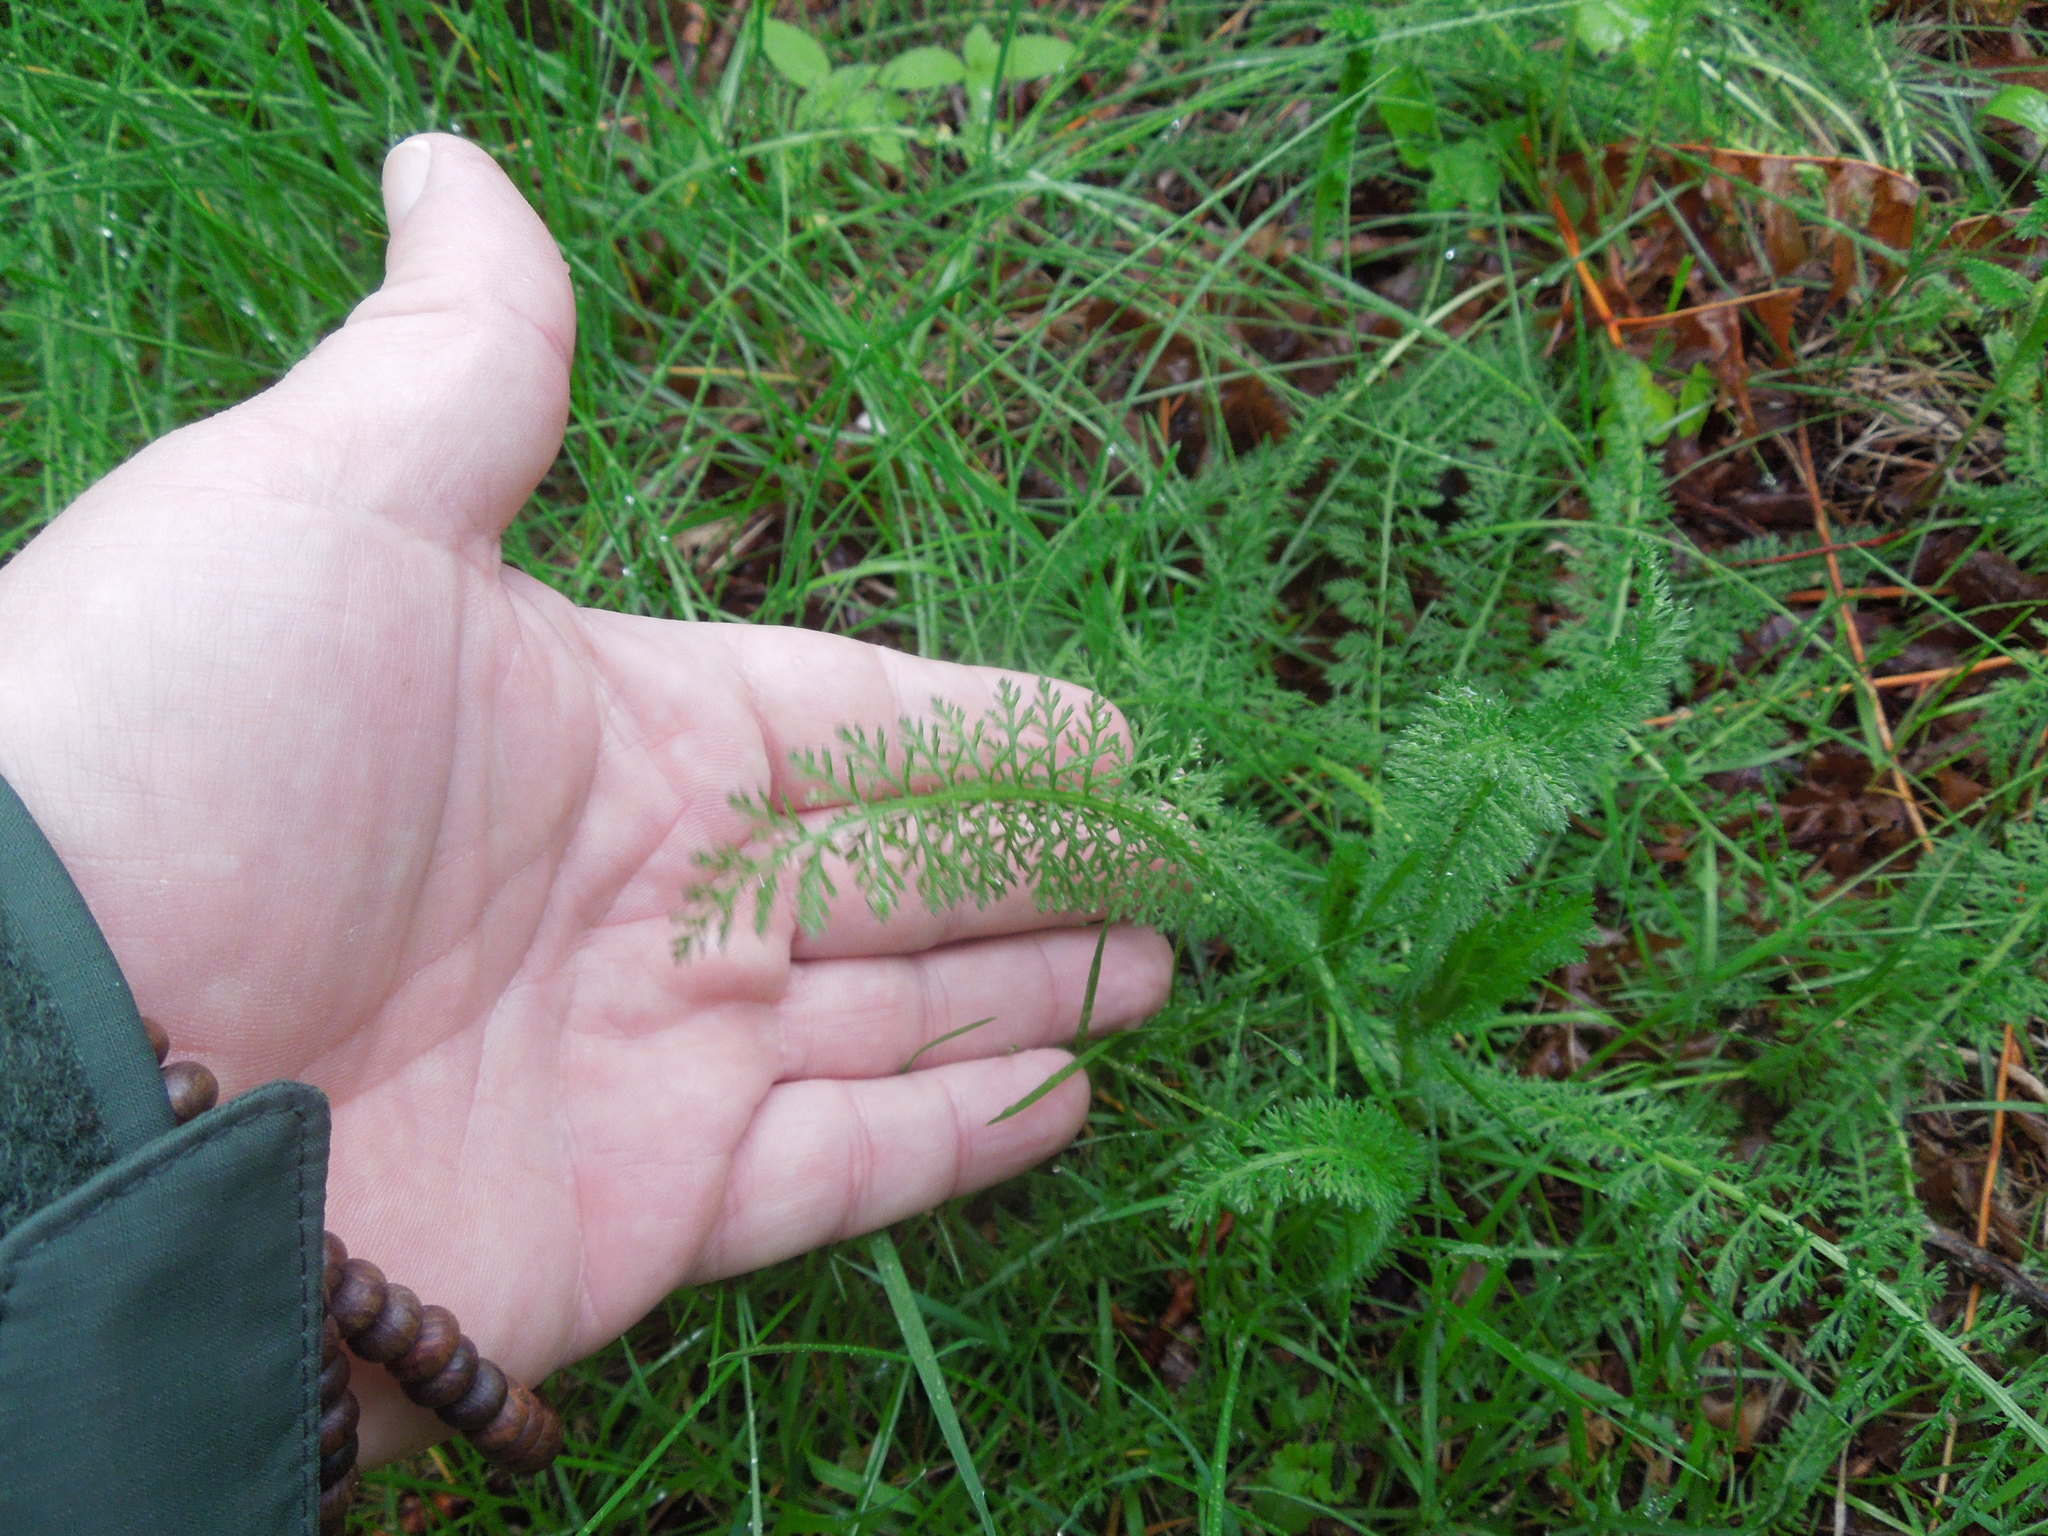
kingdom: Plantae
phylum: Tracheophyta
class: Magnoliopsida
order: Asterales
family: Asteraceae
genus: Achillea
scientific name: Achillea millefolium
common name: Yarrow
